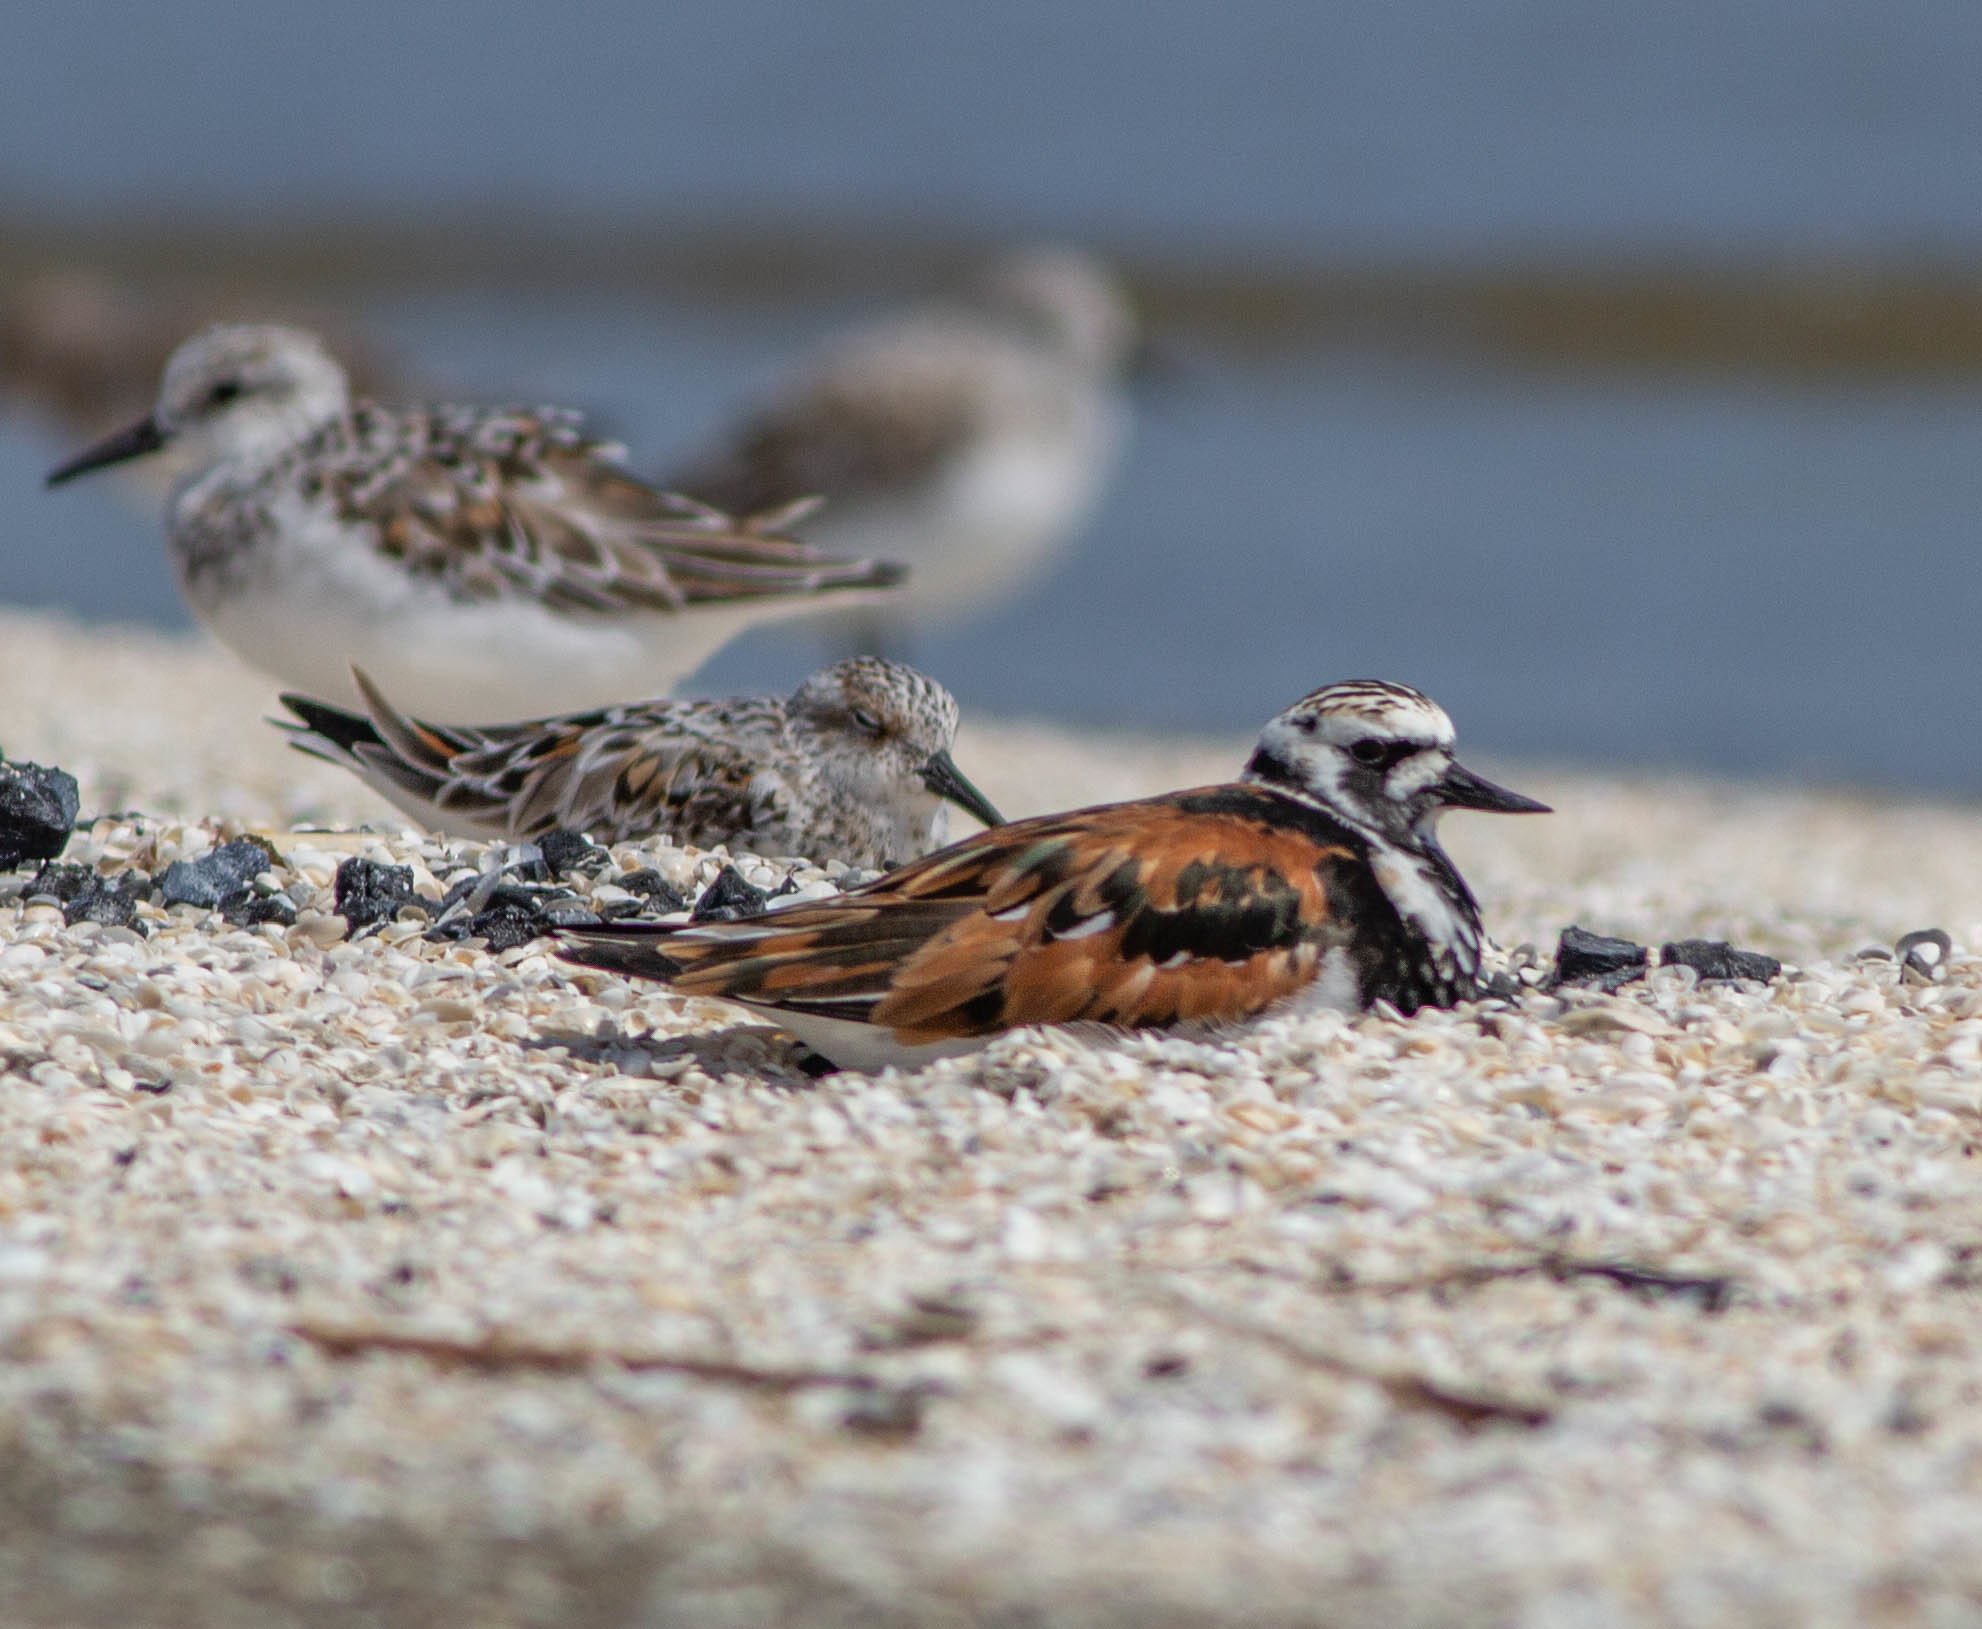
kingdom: Animalia
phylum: Chordata
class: Aves
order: Charadriiformes
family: Scolopacidae
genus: Arenaria
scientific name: Arenaria interpres
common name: Ruddy turnstone
